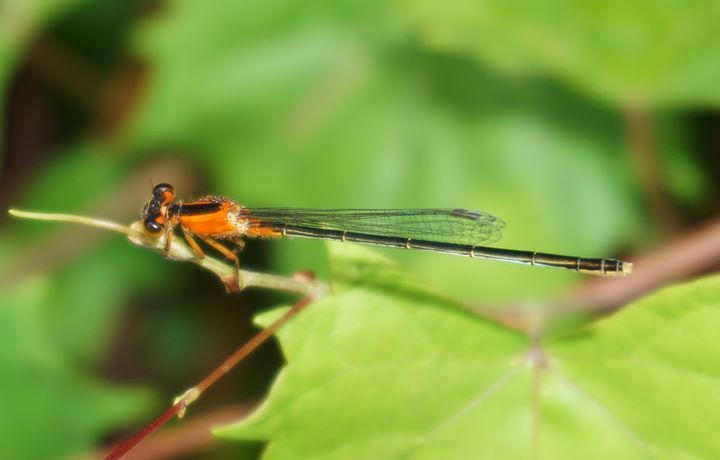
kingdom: Animalia
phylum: Arthropoda
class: Insecta
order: Odonata
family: Coenagrionidae
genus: Ischnura
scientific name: Ischnura ramburii
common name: Rambur's forktail
